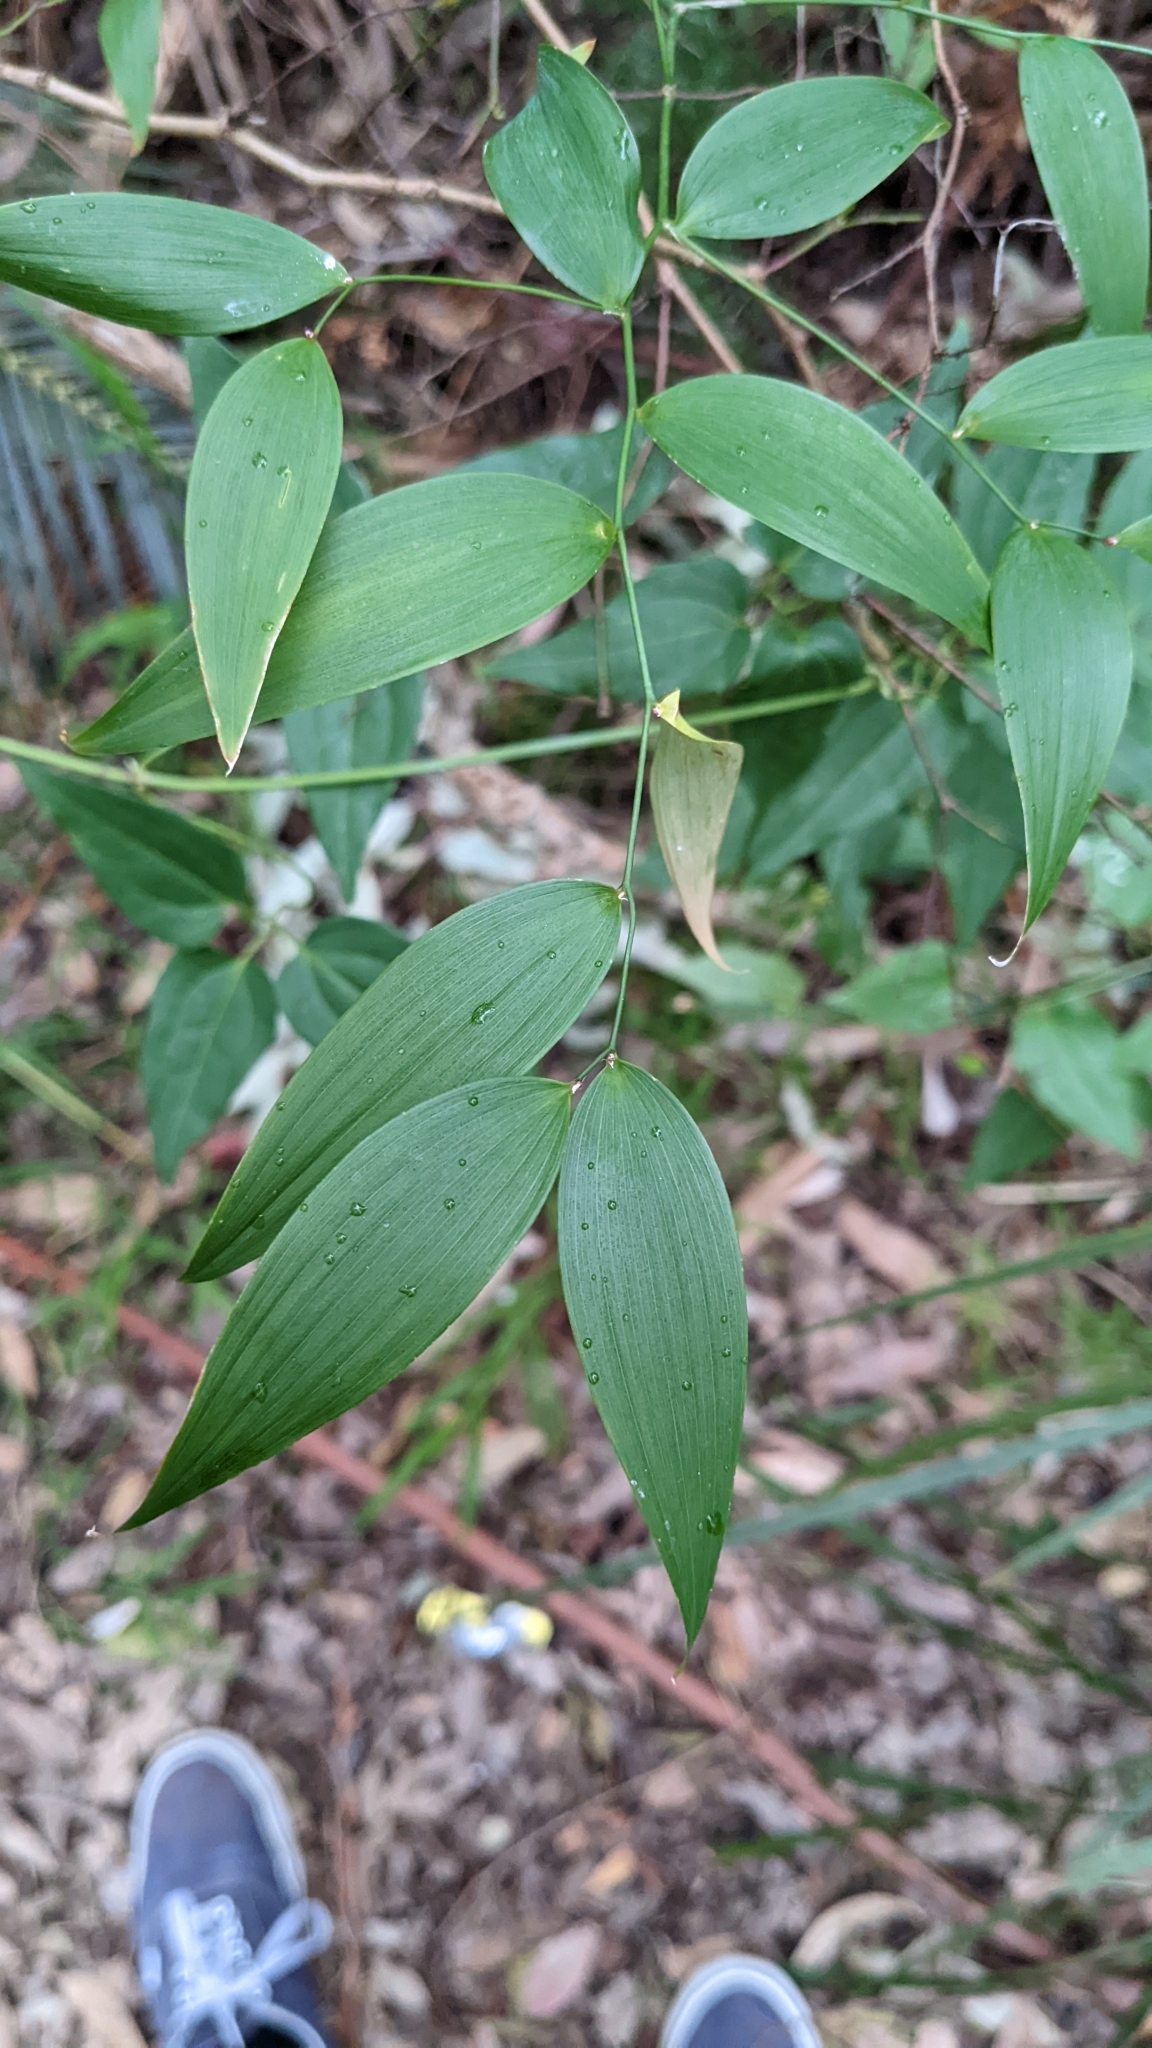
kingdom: Plantae
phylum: Tracheophyta
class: Liliopsida
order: Asparagales
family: Asparagaceae
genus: Eustrephus
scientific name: Eustrephus latifolius
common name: Orangevine
